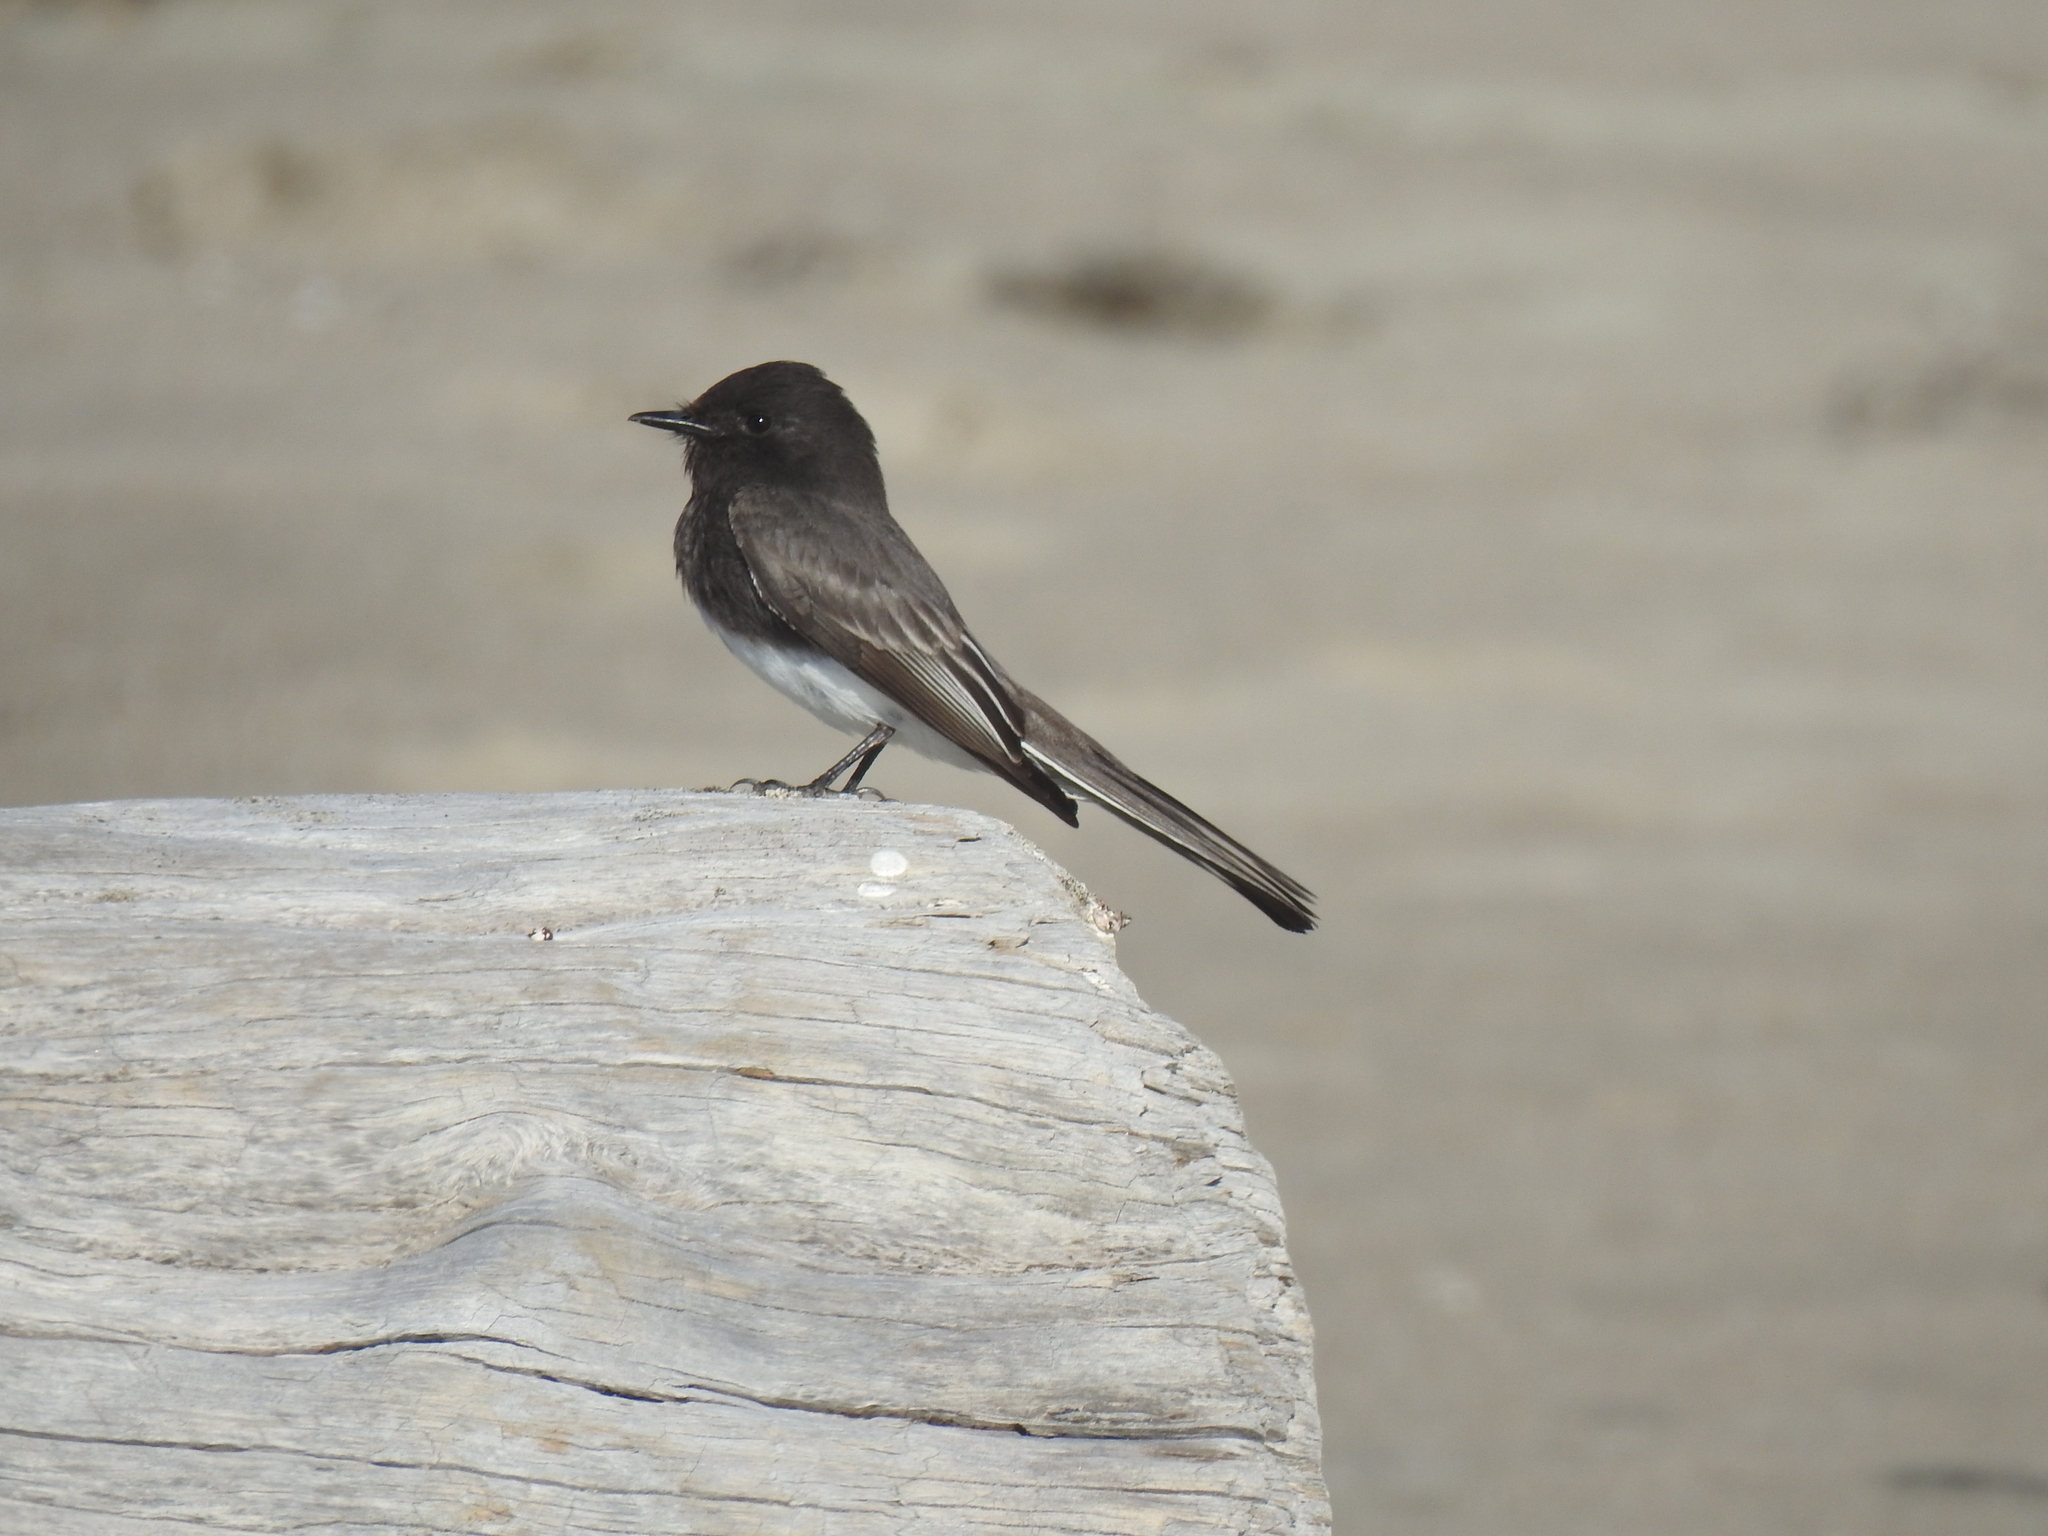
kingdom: Animalia
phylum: Chordata
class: Aves
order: Passeriformes
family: Tyrannidae
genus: Sayornis
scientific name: Sayornis nigricans
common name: Black phoebe
